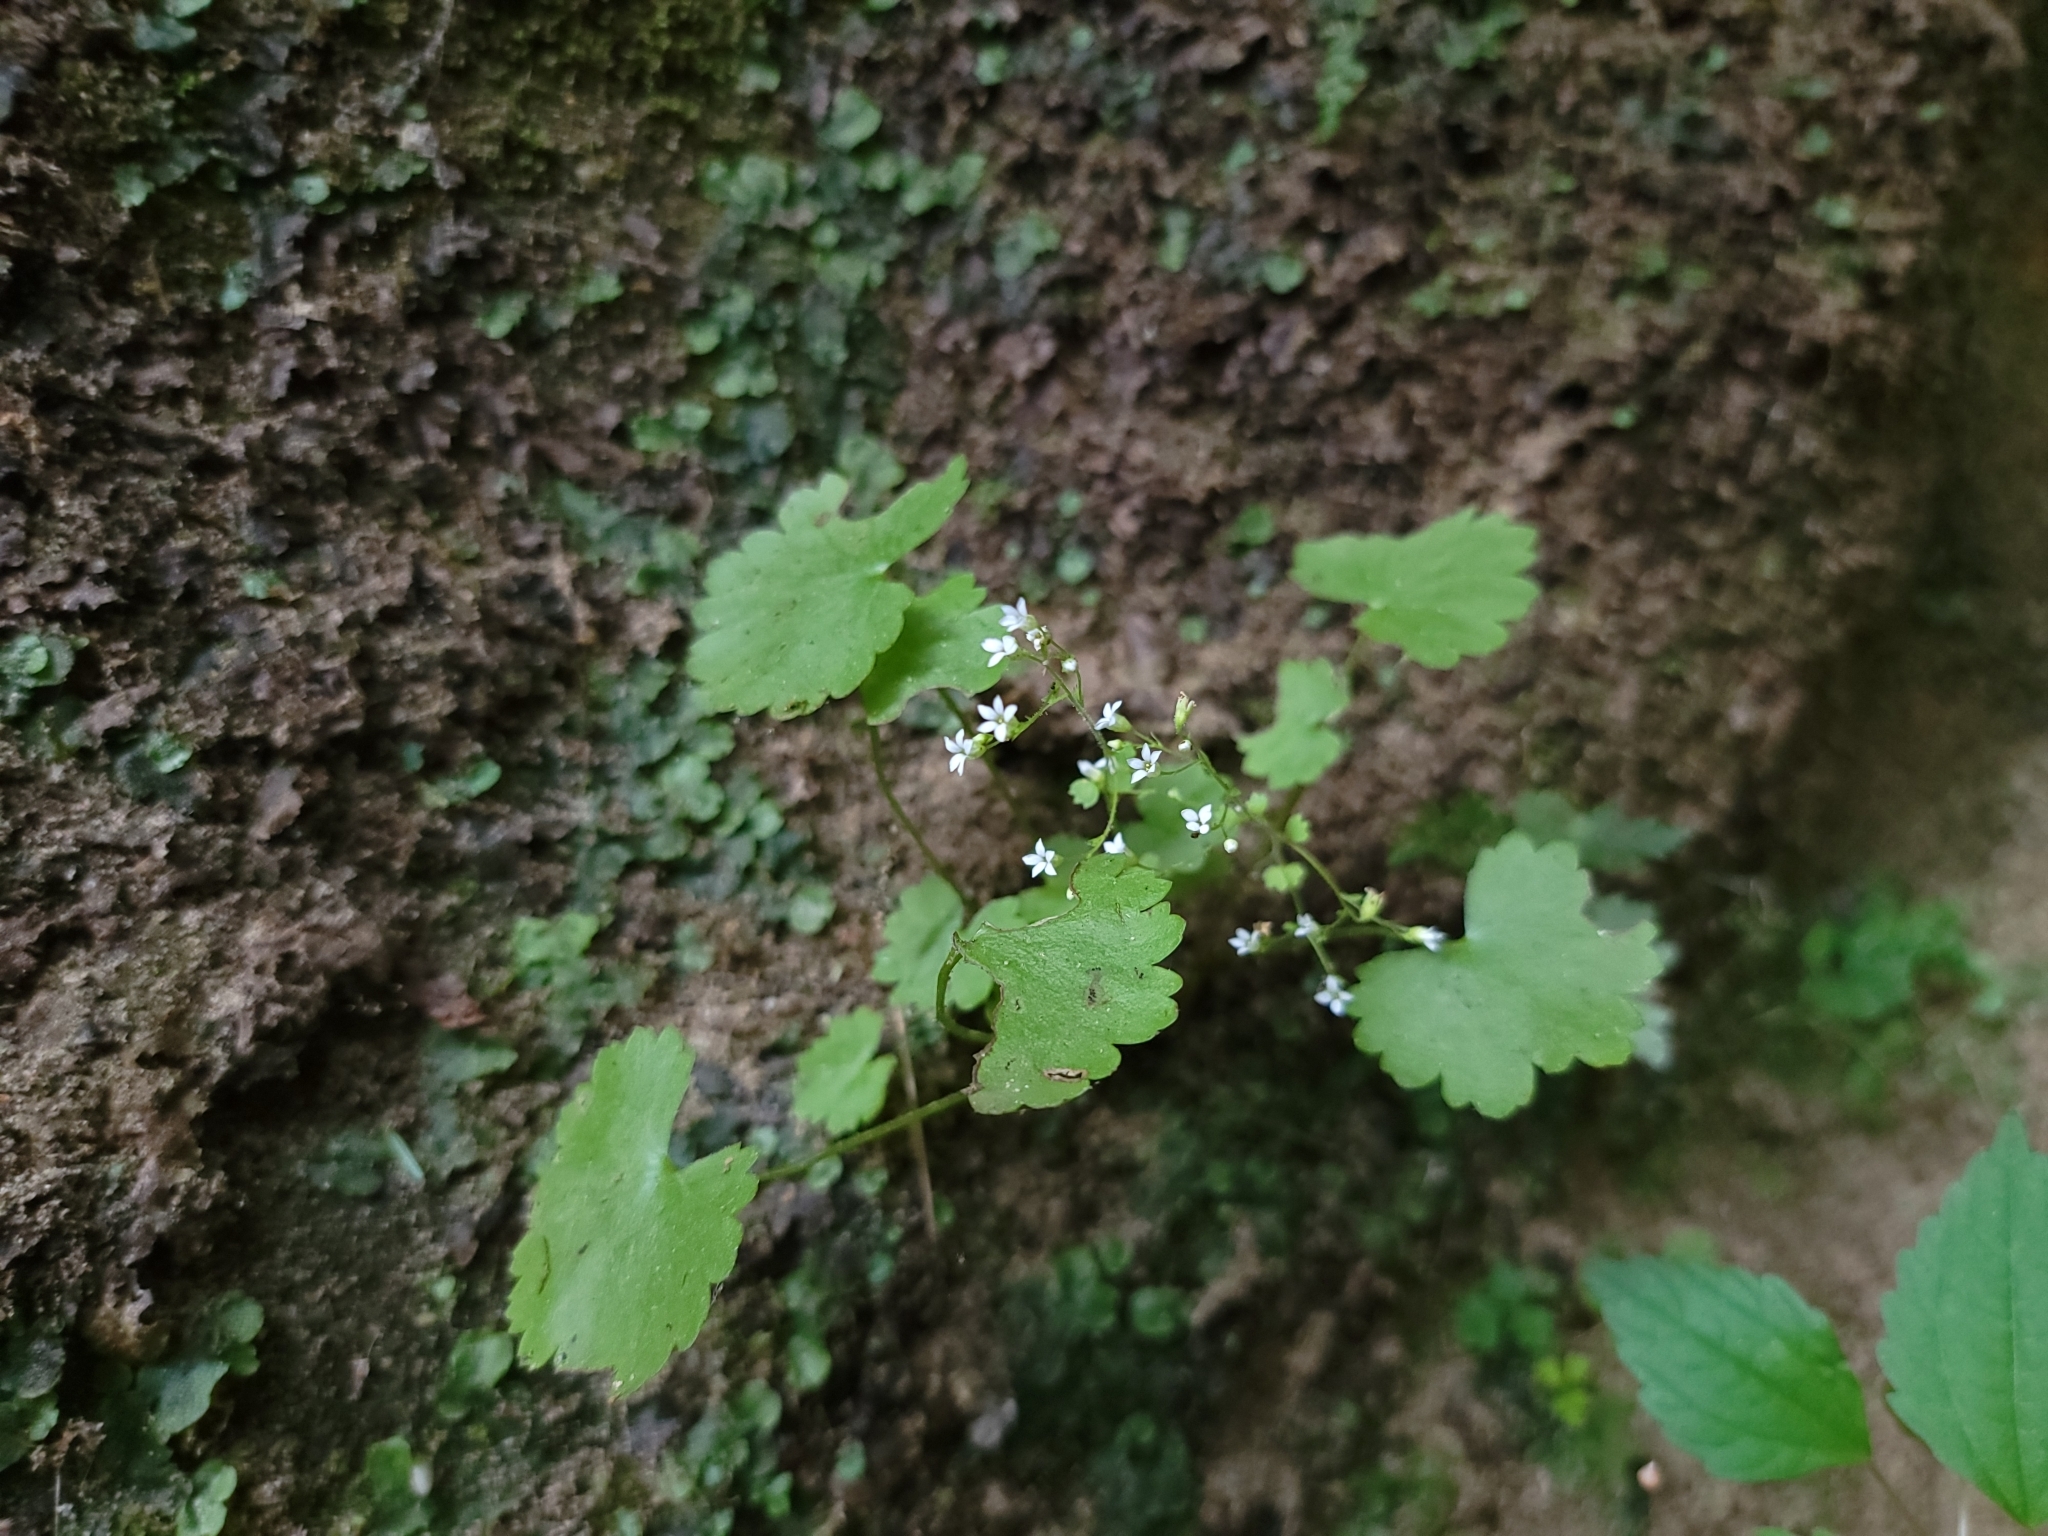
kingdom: Plantae
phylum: Tracheophyta
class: Magnoliopsida
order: Saxifragales
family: Saxifragaceae
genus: Sullivantia
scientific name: Sullivantia sullivantii
